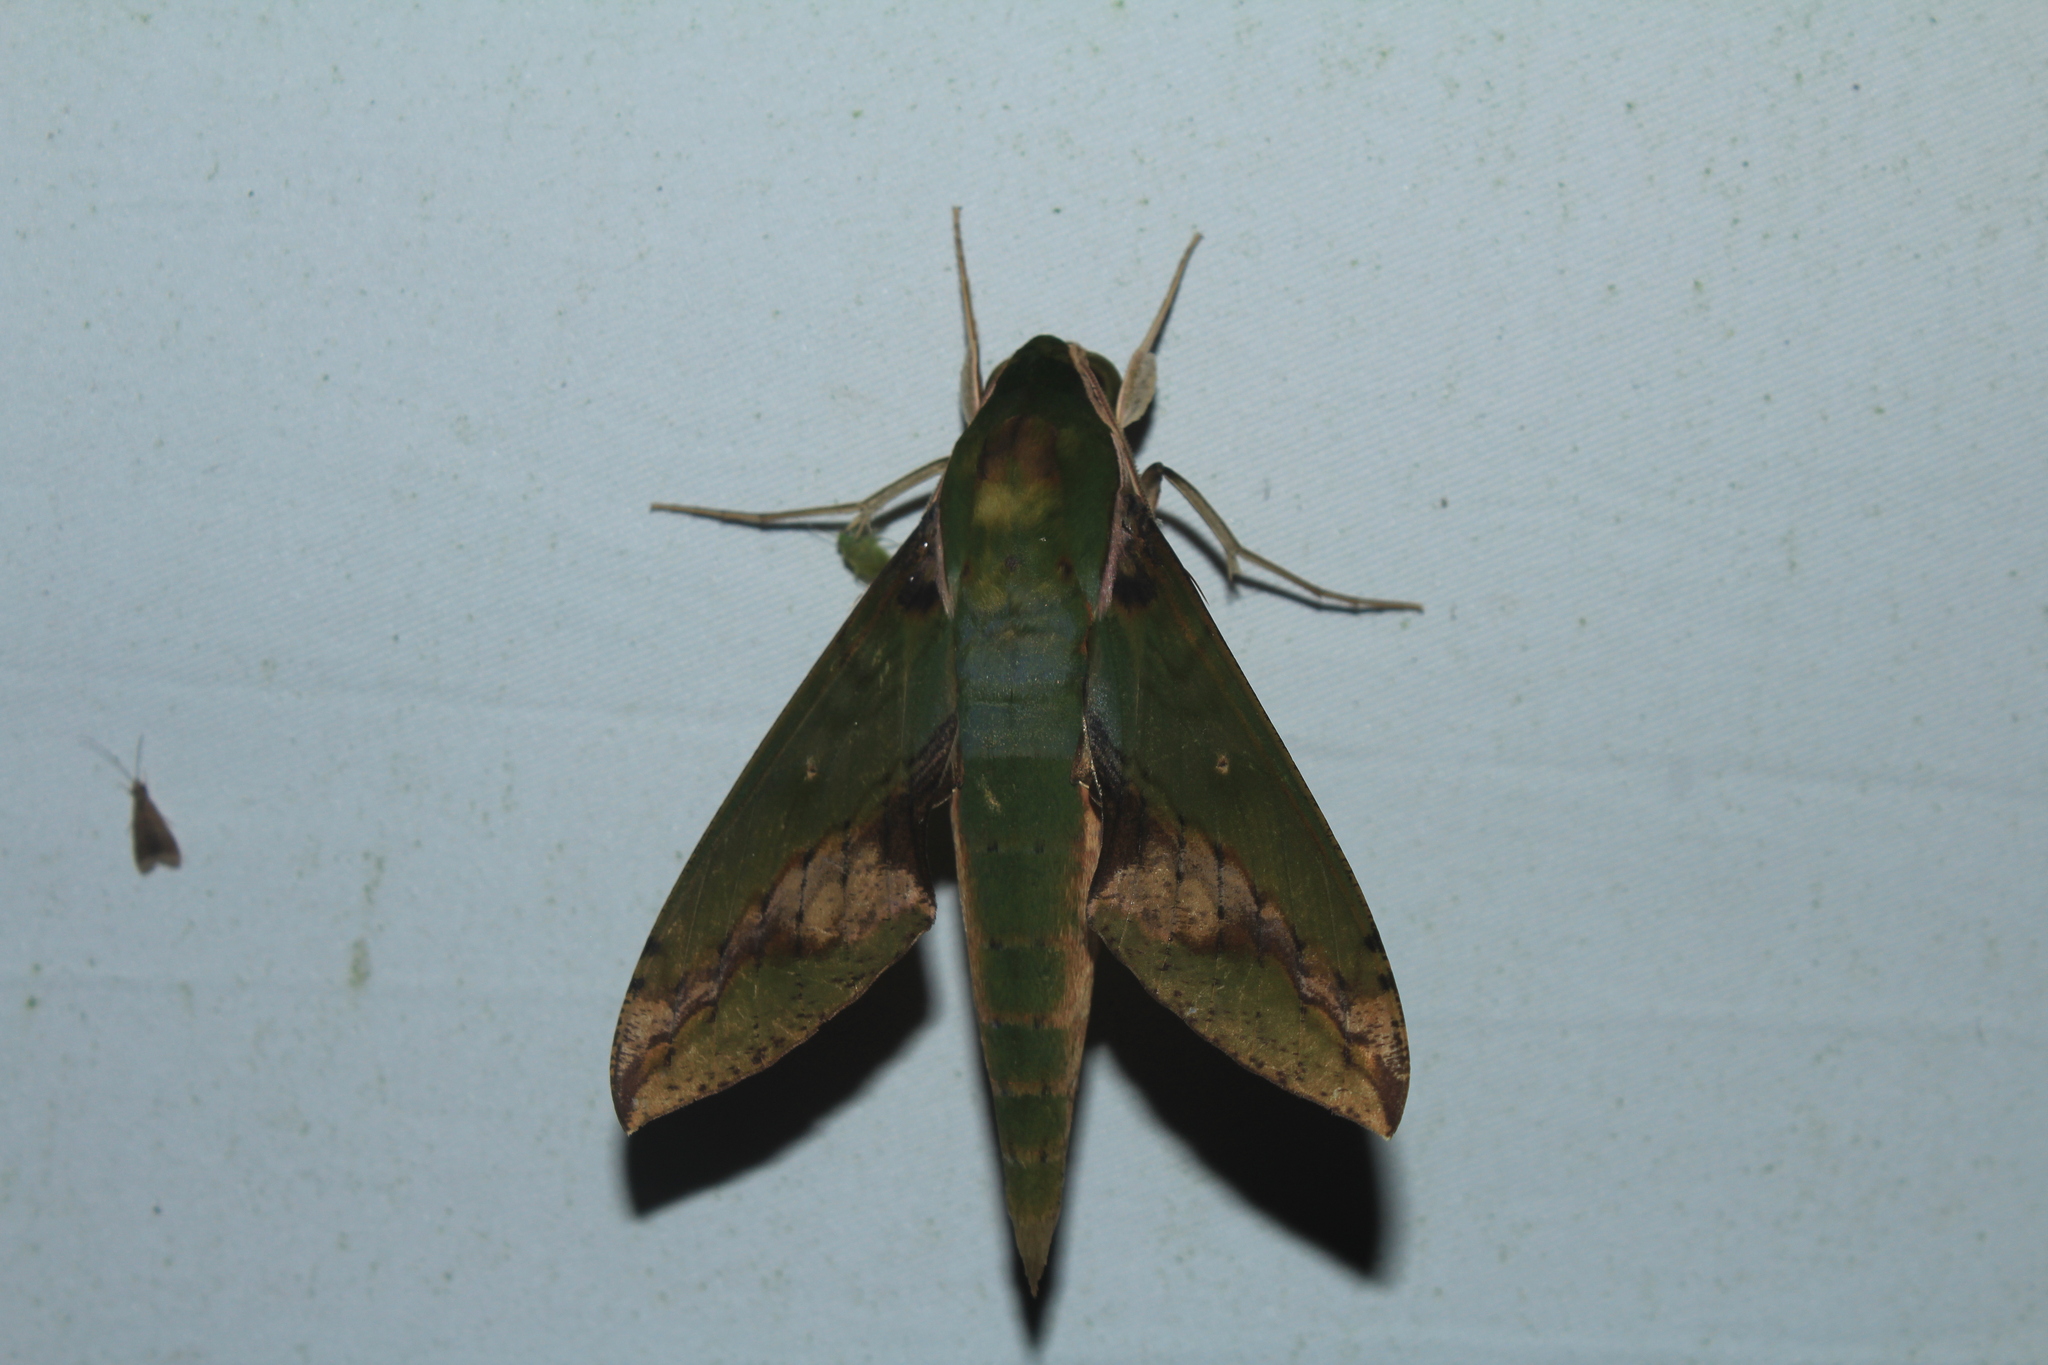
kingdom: Animalia
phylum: Arthropoda
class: Insecta
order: Lepidoptera
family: Sphingidae
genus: Xylophanes
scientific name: Xylophanes chiron
